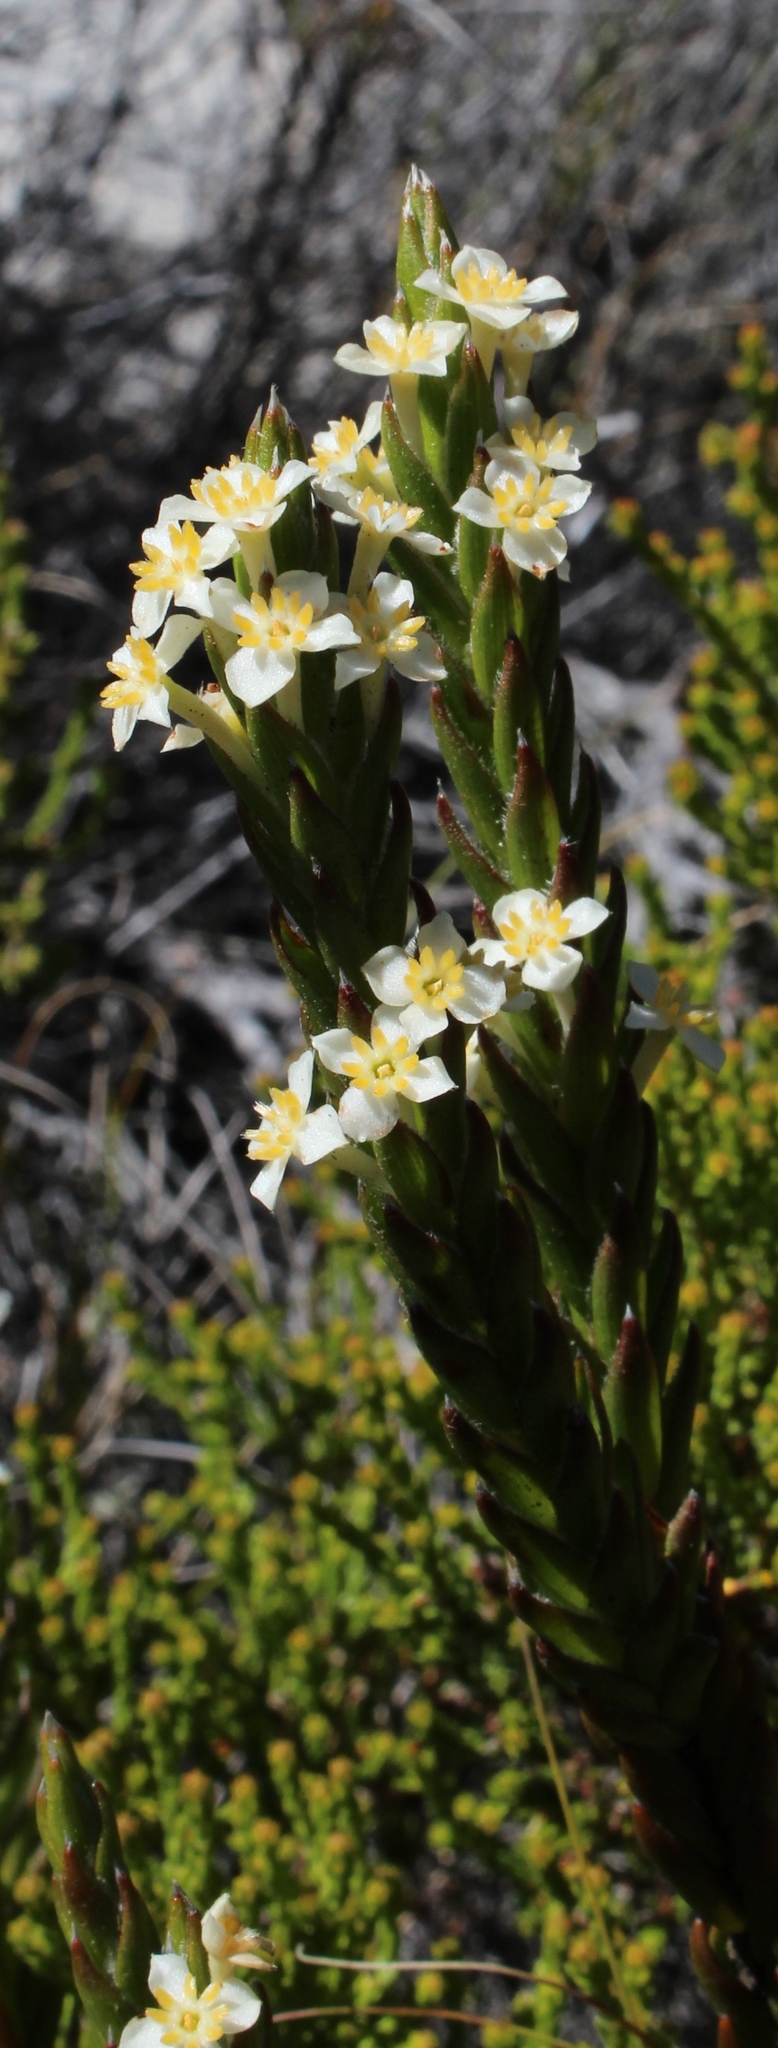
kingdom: Plantae
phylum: Tracheophyta
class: Magnoliopsida
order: Malvales
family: Thymelaeaceae
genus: Struthiola
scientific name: Struthiola ciliata
